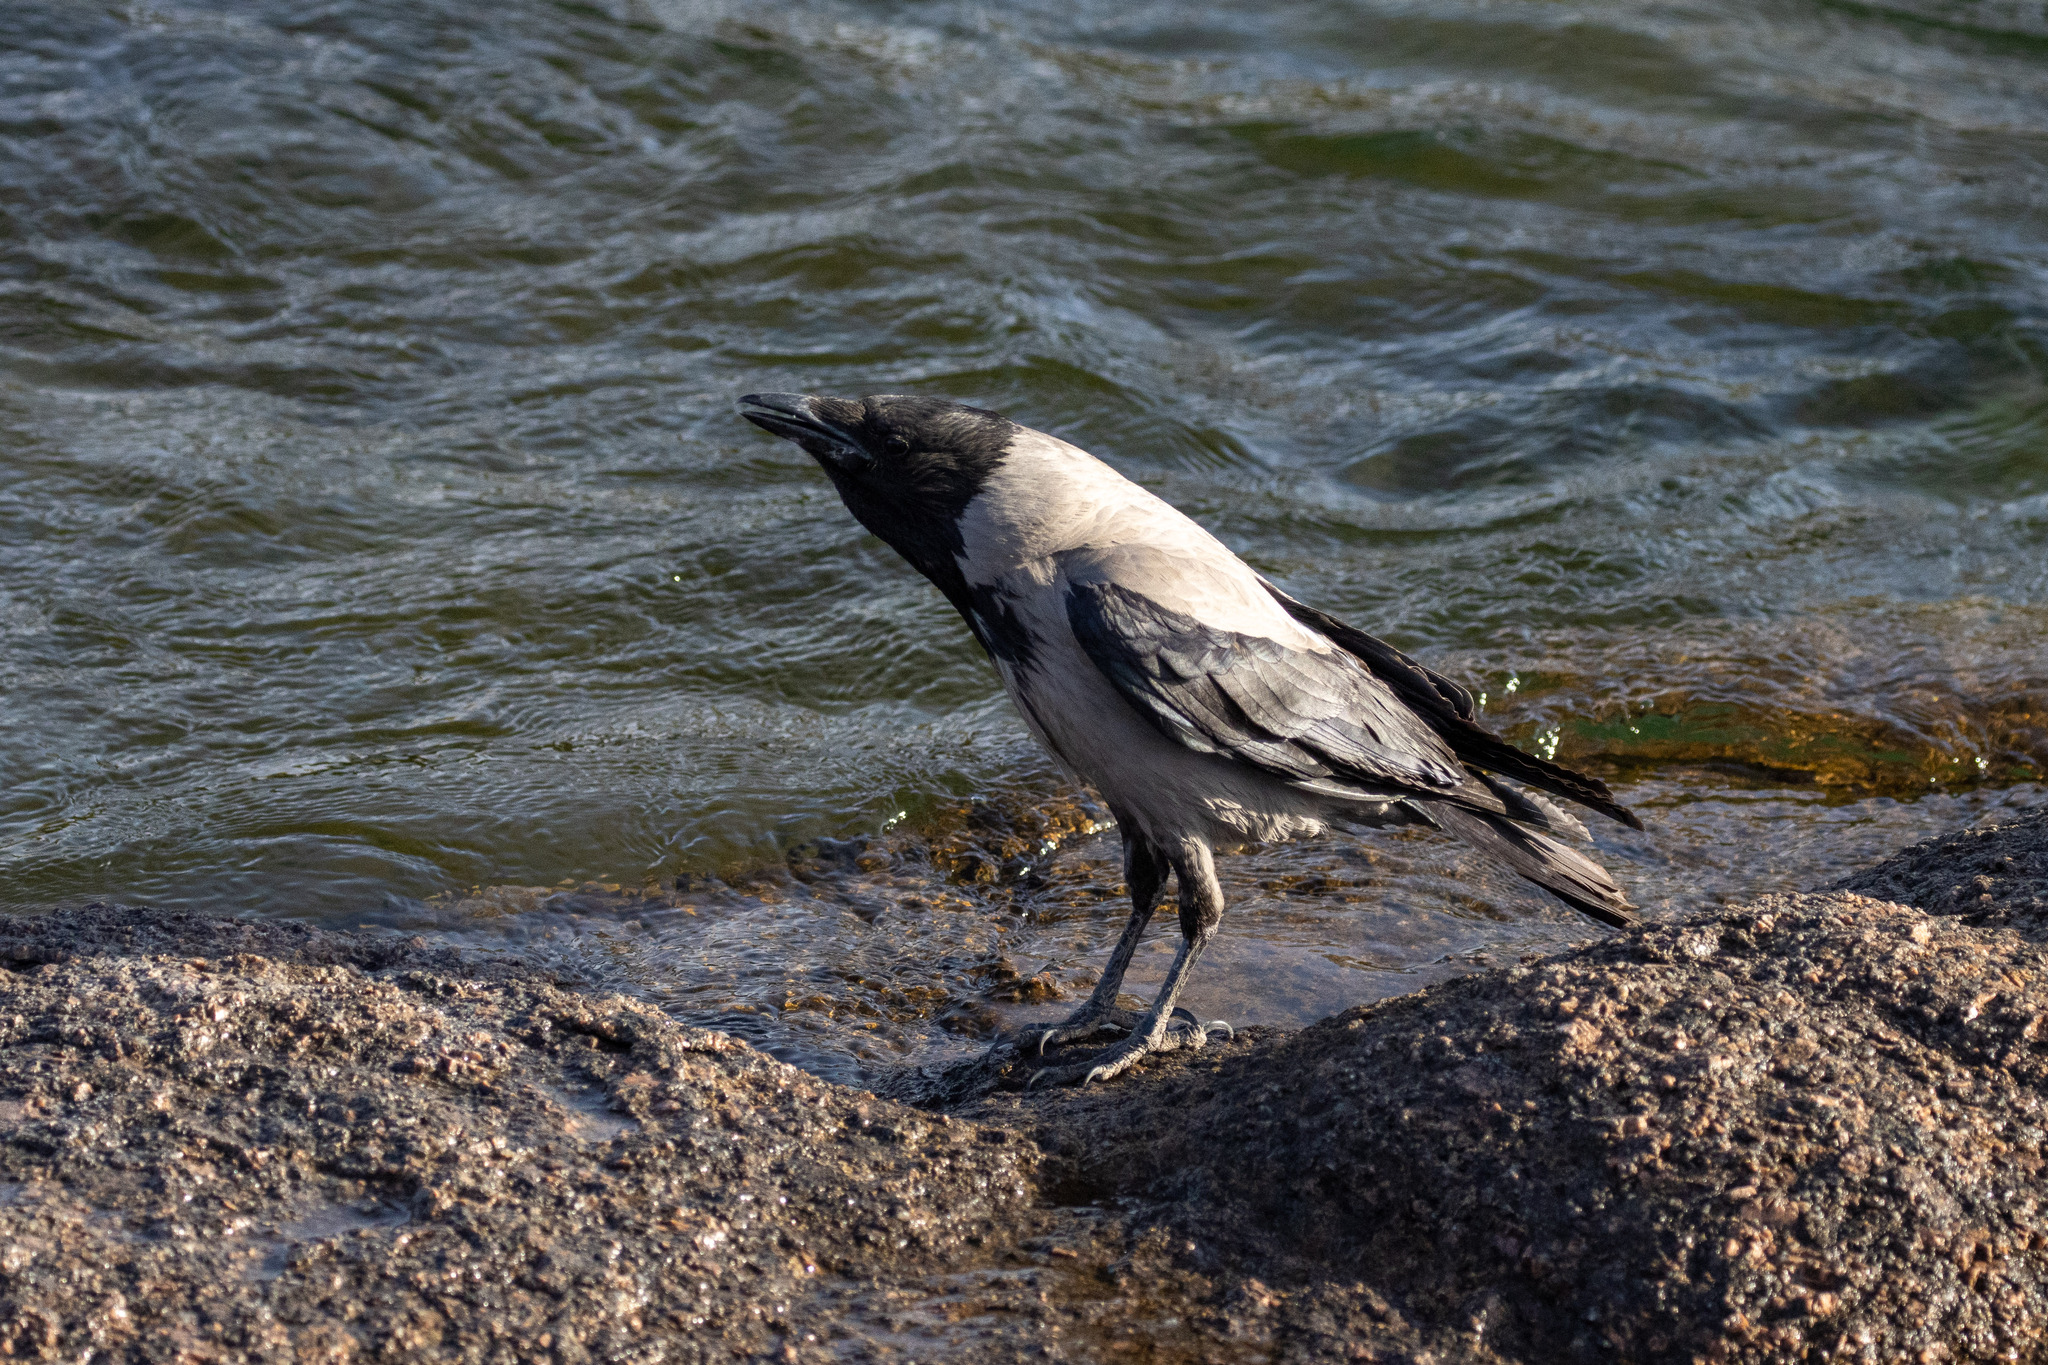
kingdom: Animalia
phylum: Chordata
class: Aves
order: Passeriformes
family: Corvidae
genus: Corvus
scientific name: Corvus cornix
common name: Hooded crow
